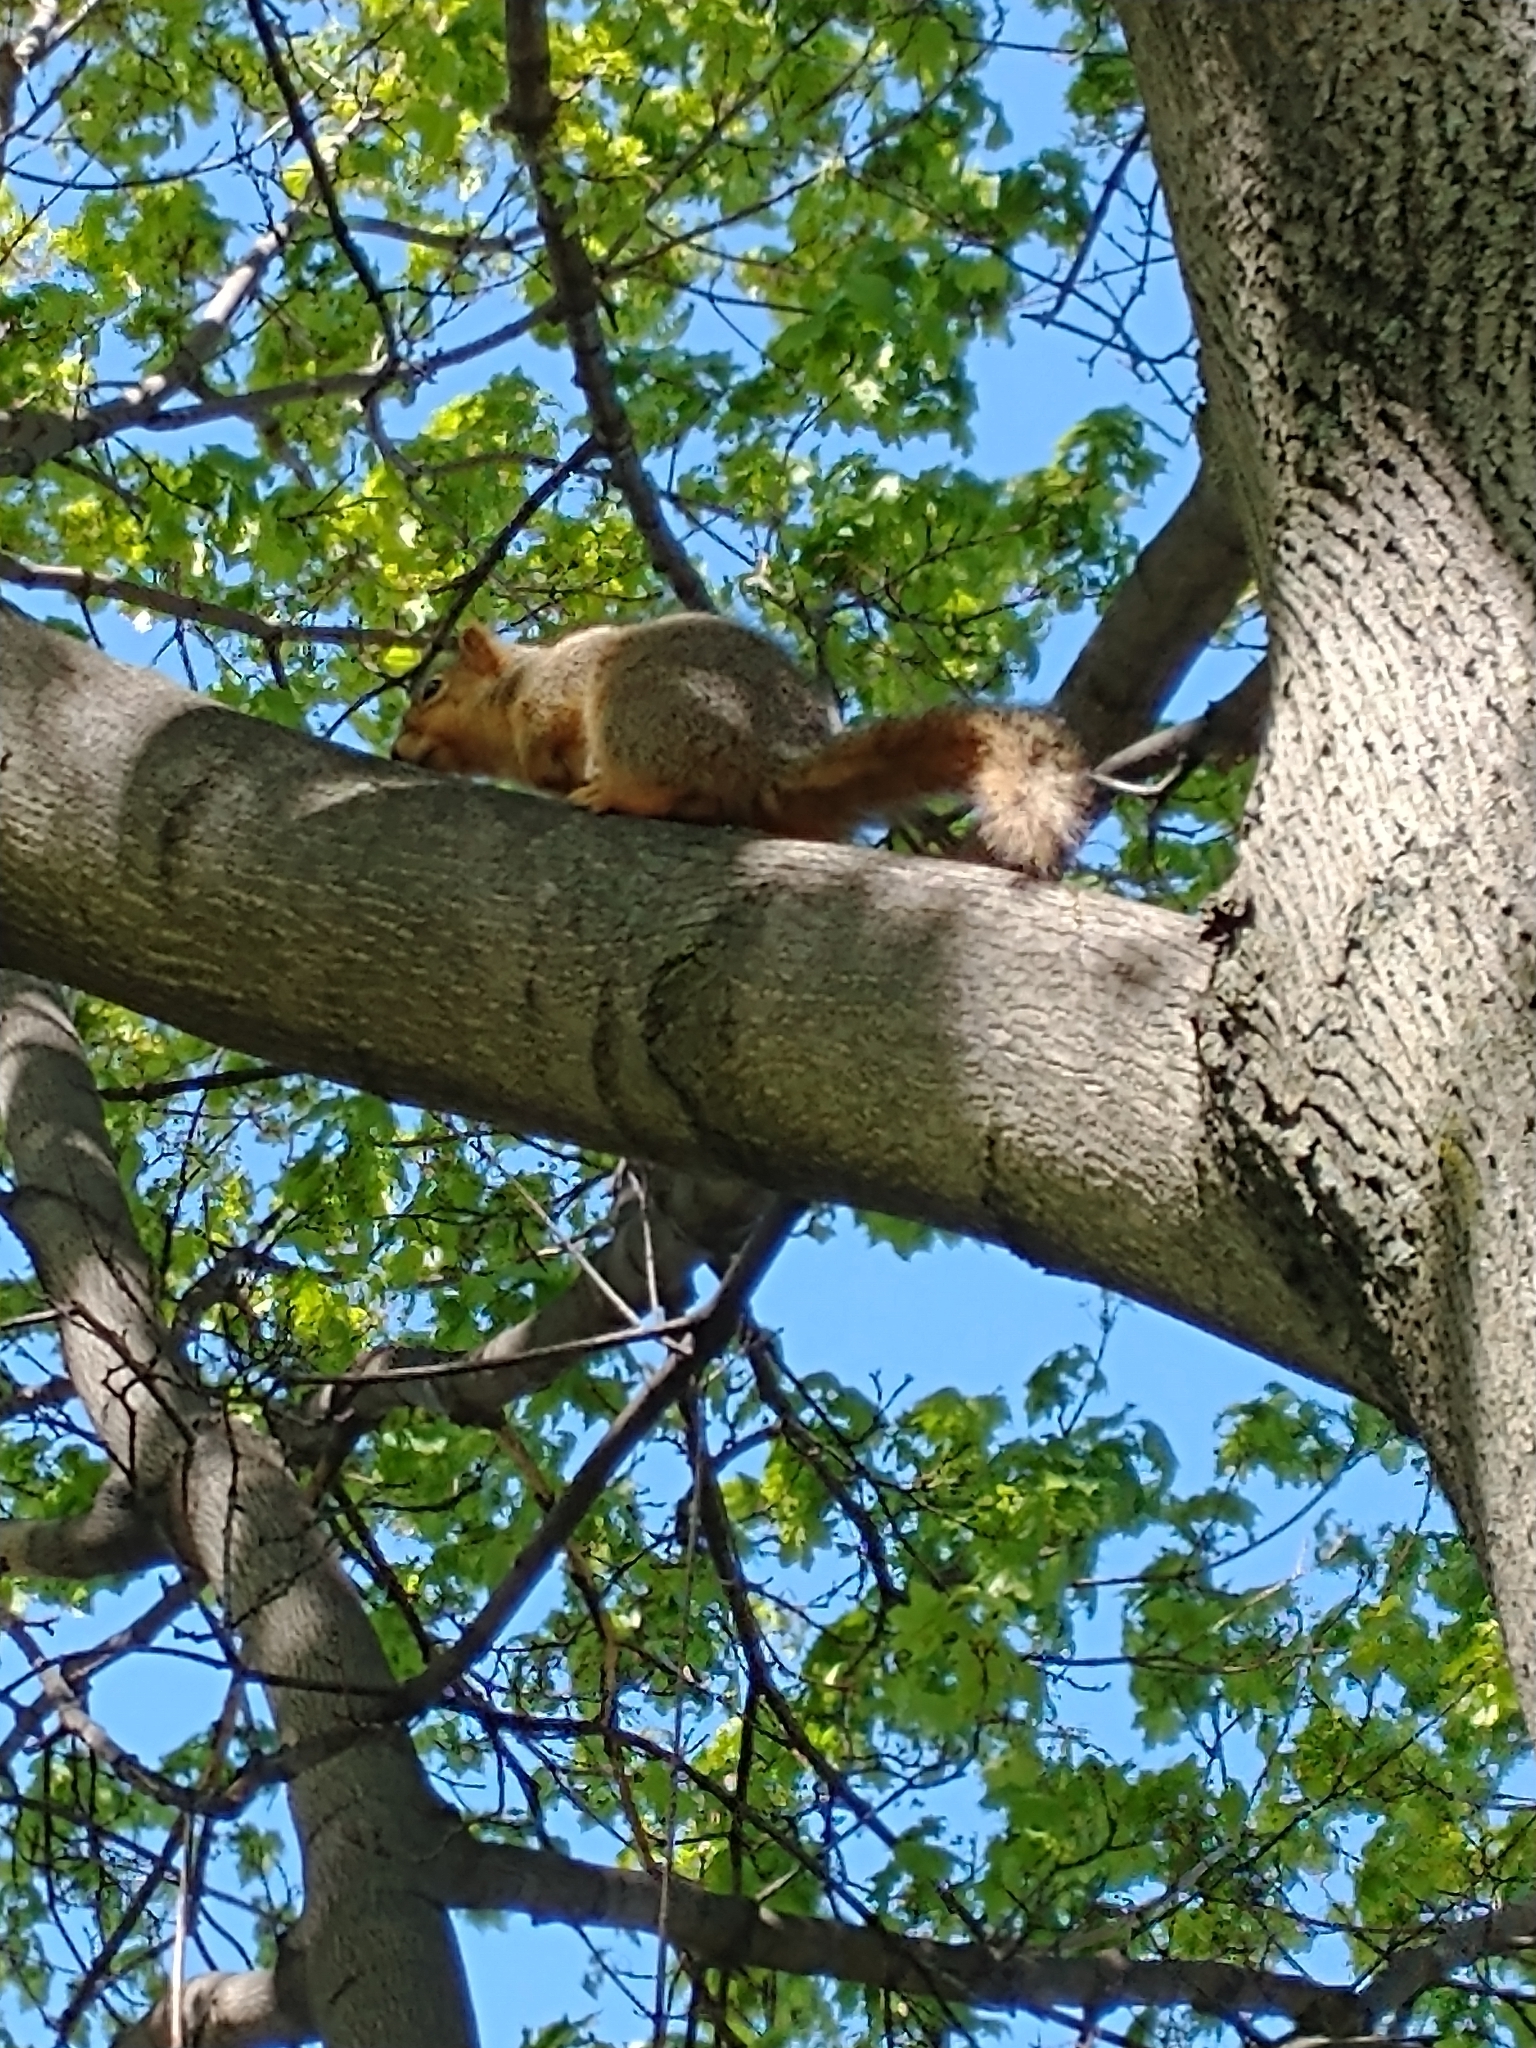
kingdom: Animalia
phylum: Chordata
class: Mammalia
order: Rodentia
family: Sciuridae
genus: Sciurus
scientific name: Sciurus niger
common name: Fox squirrel
